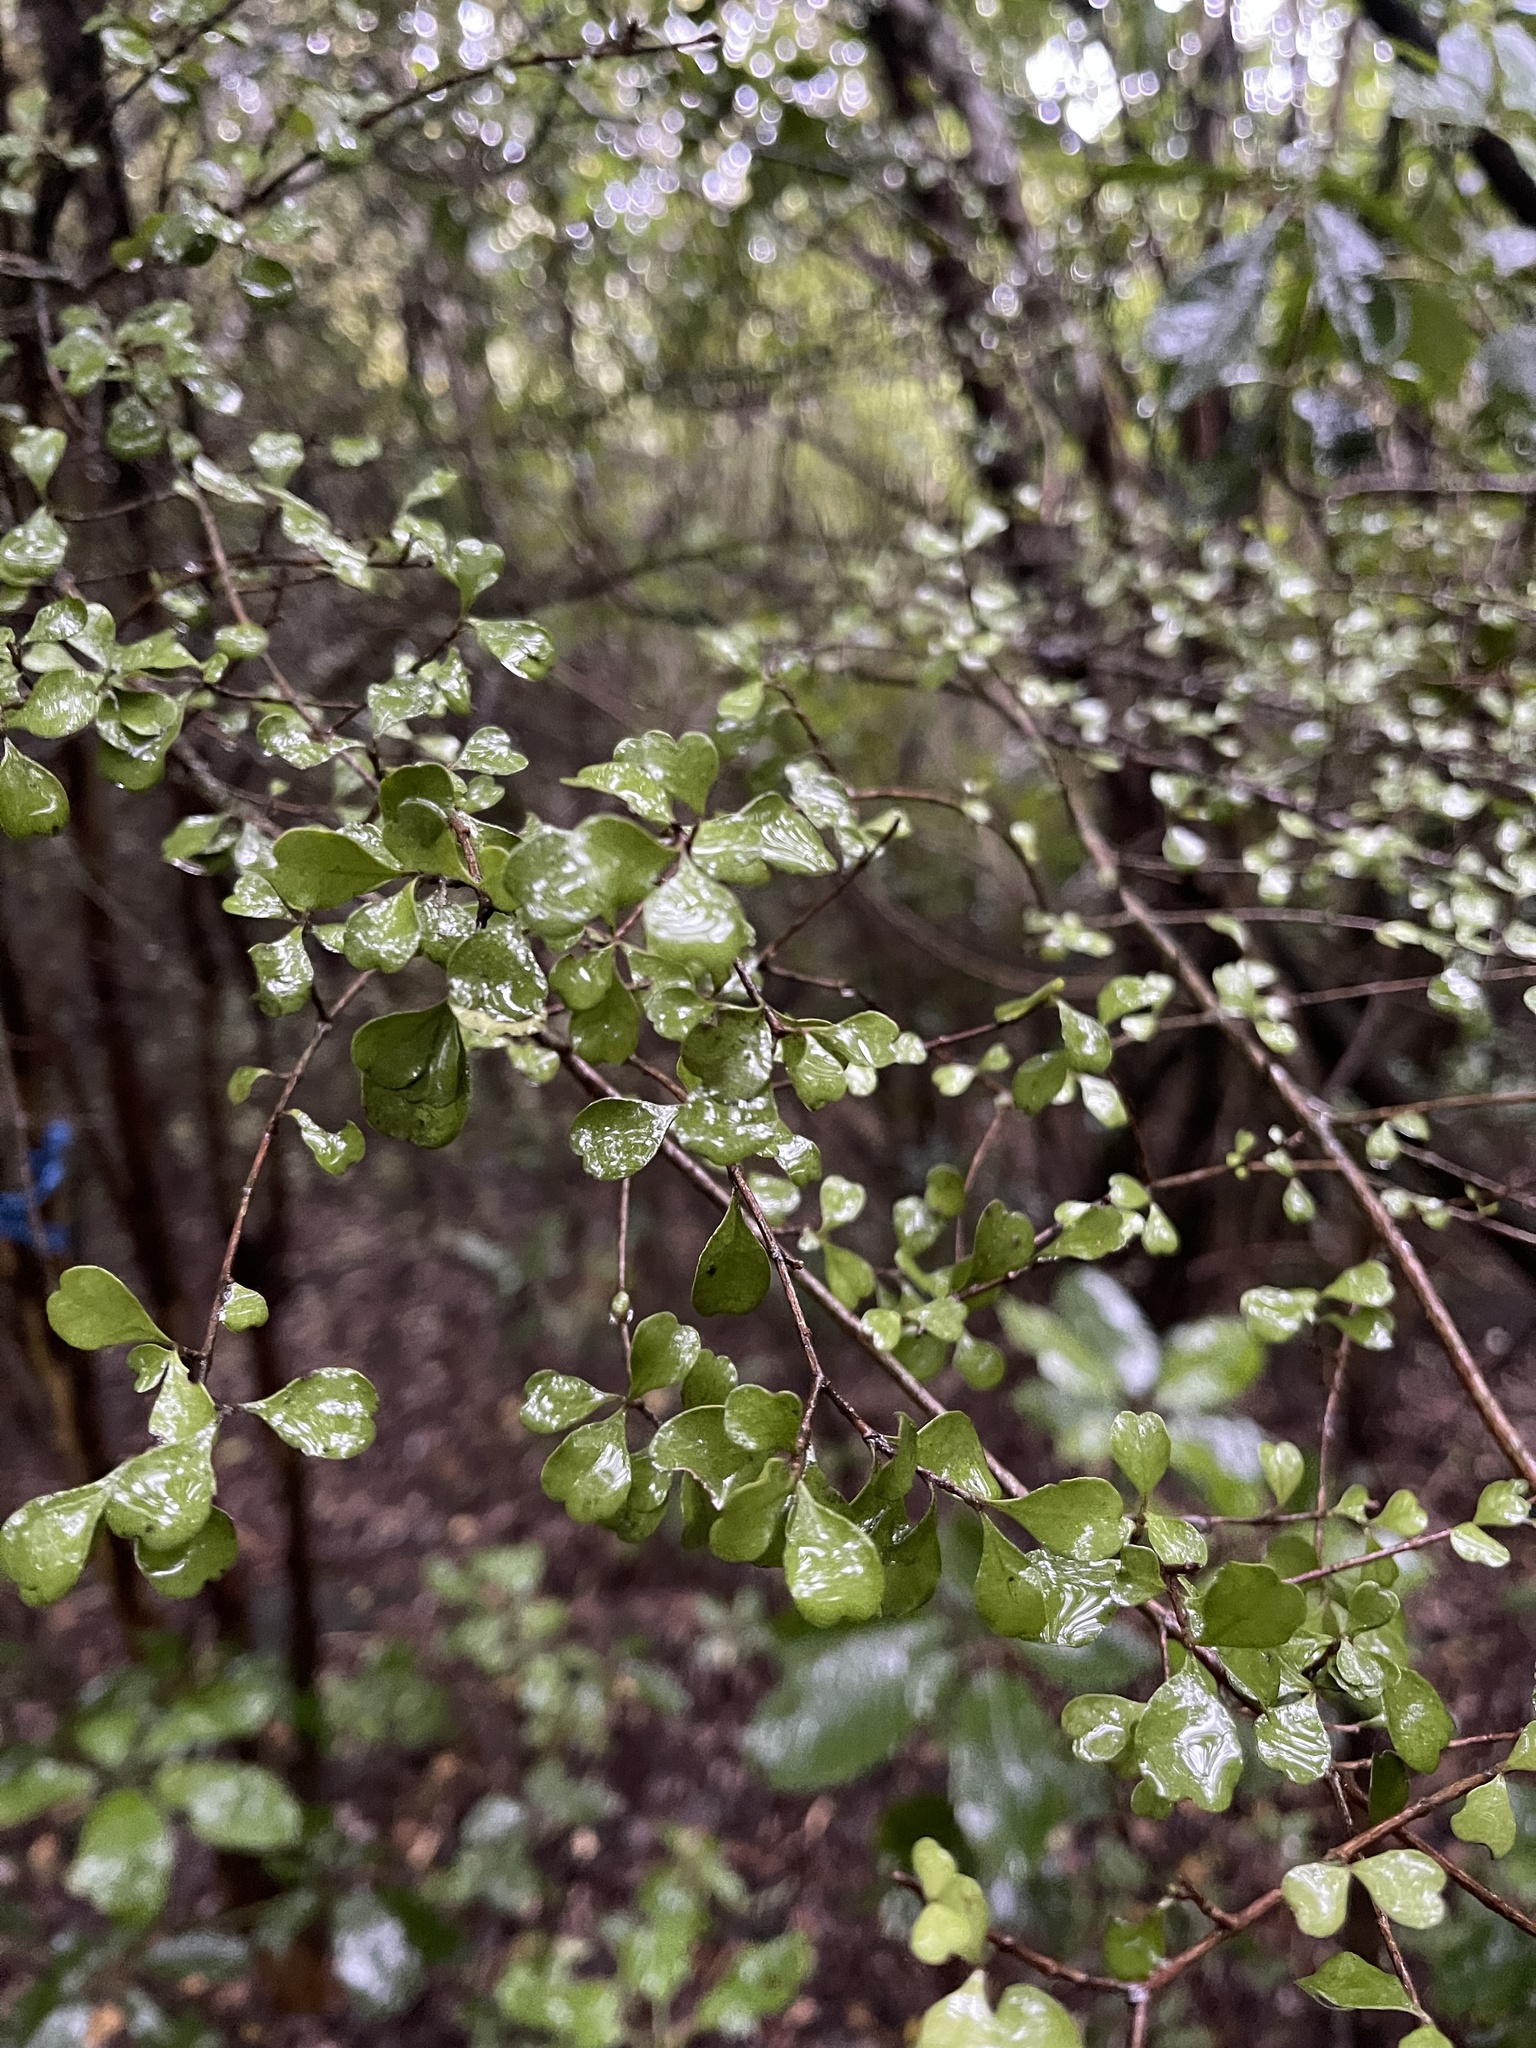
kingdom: Plantae
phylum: Tracheophyta
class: Magnoliopsida
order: Myrtales
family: Myrtaceae
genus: Lophomyrtus
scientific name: Lophomyrtus obcordata
